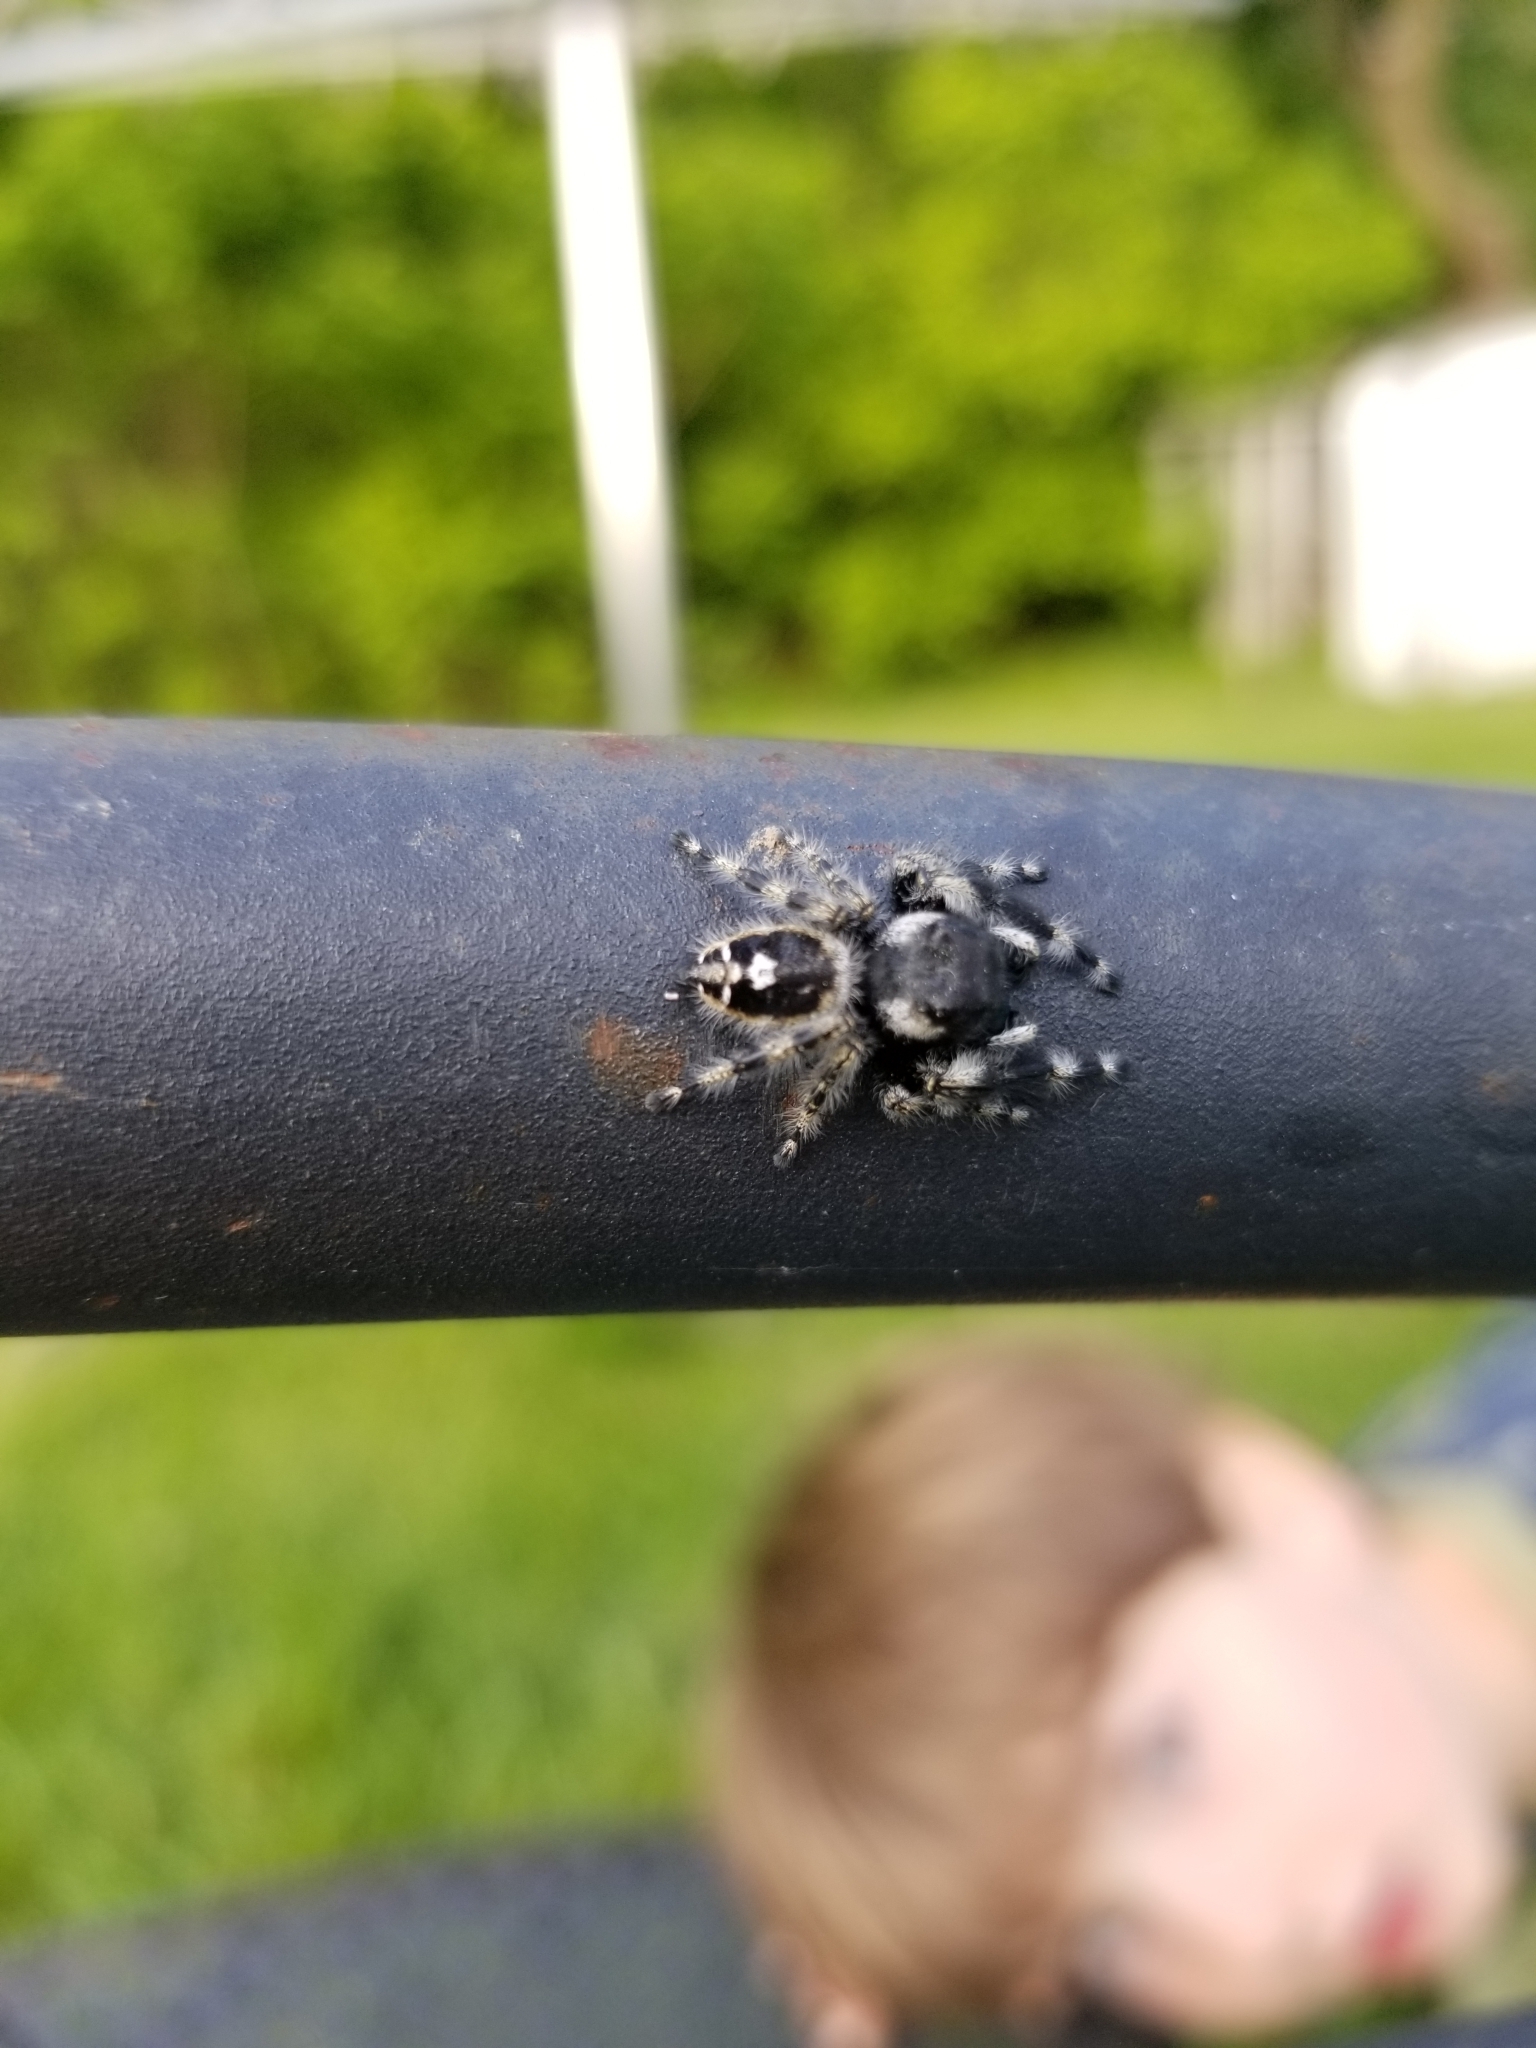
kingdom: Animalia
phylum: Arthropoda
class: Arachnida
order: Araneae
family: Salticidae
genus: Phidippus
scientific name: Phidippus audax
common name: Bold jumper
